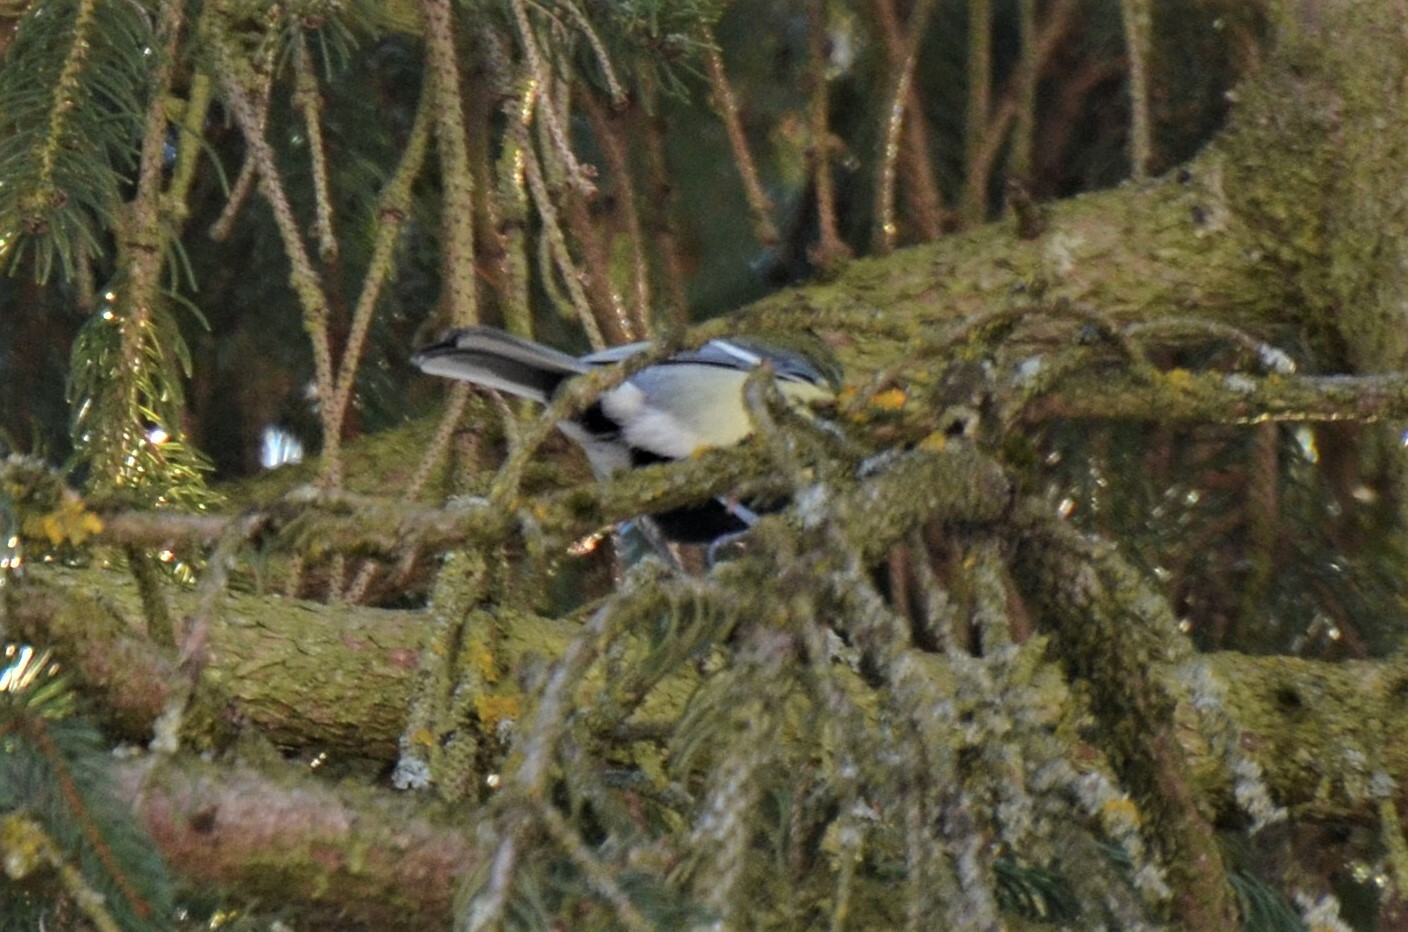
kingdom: Animalia
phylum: Chordata
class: Aves
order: Passeriformes
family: Paridae
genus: Parus
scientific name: Parus major
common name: Great tit
